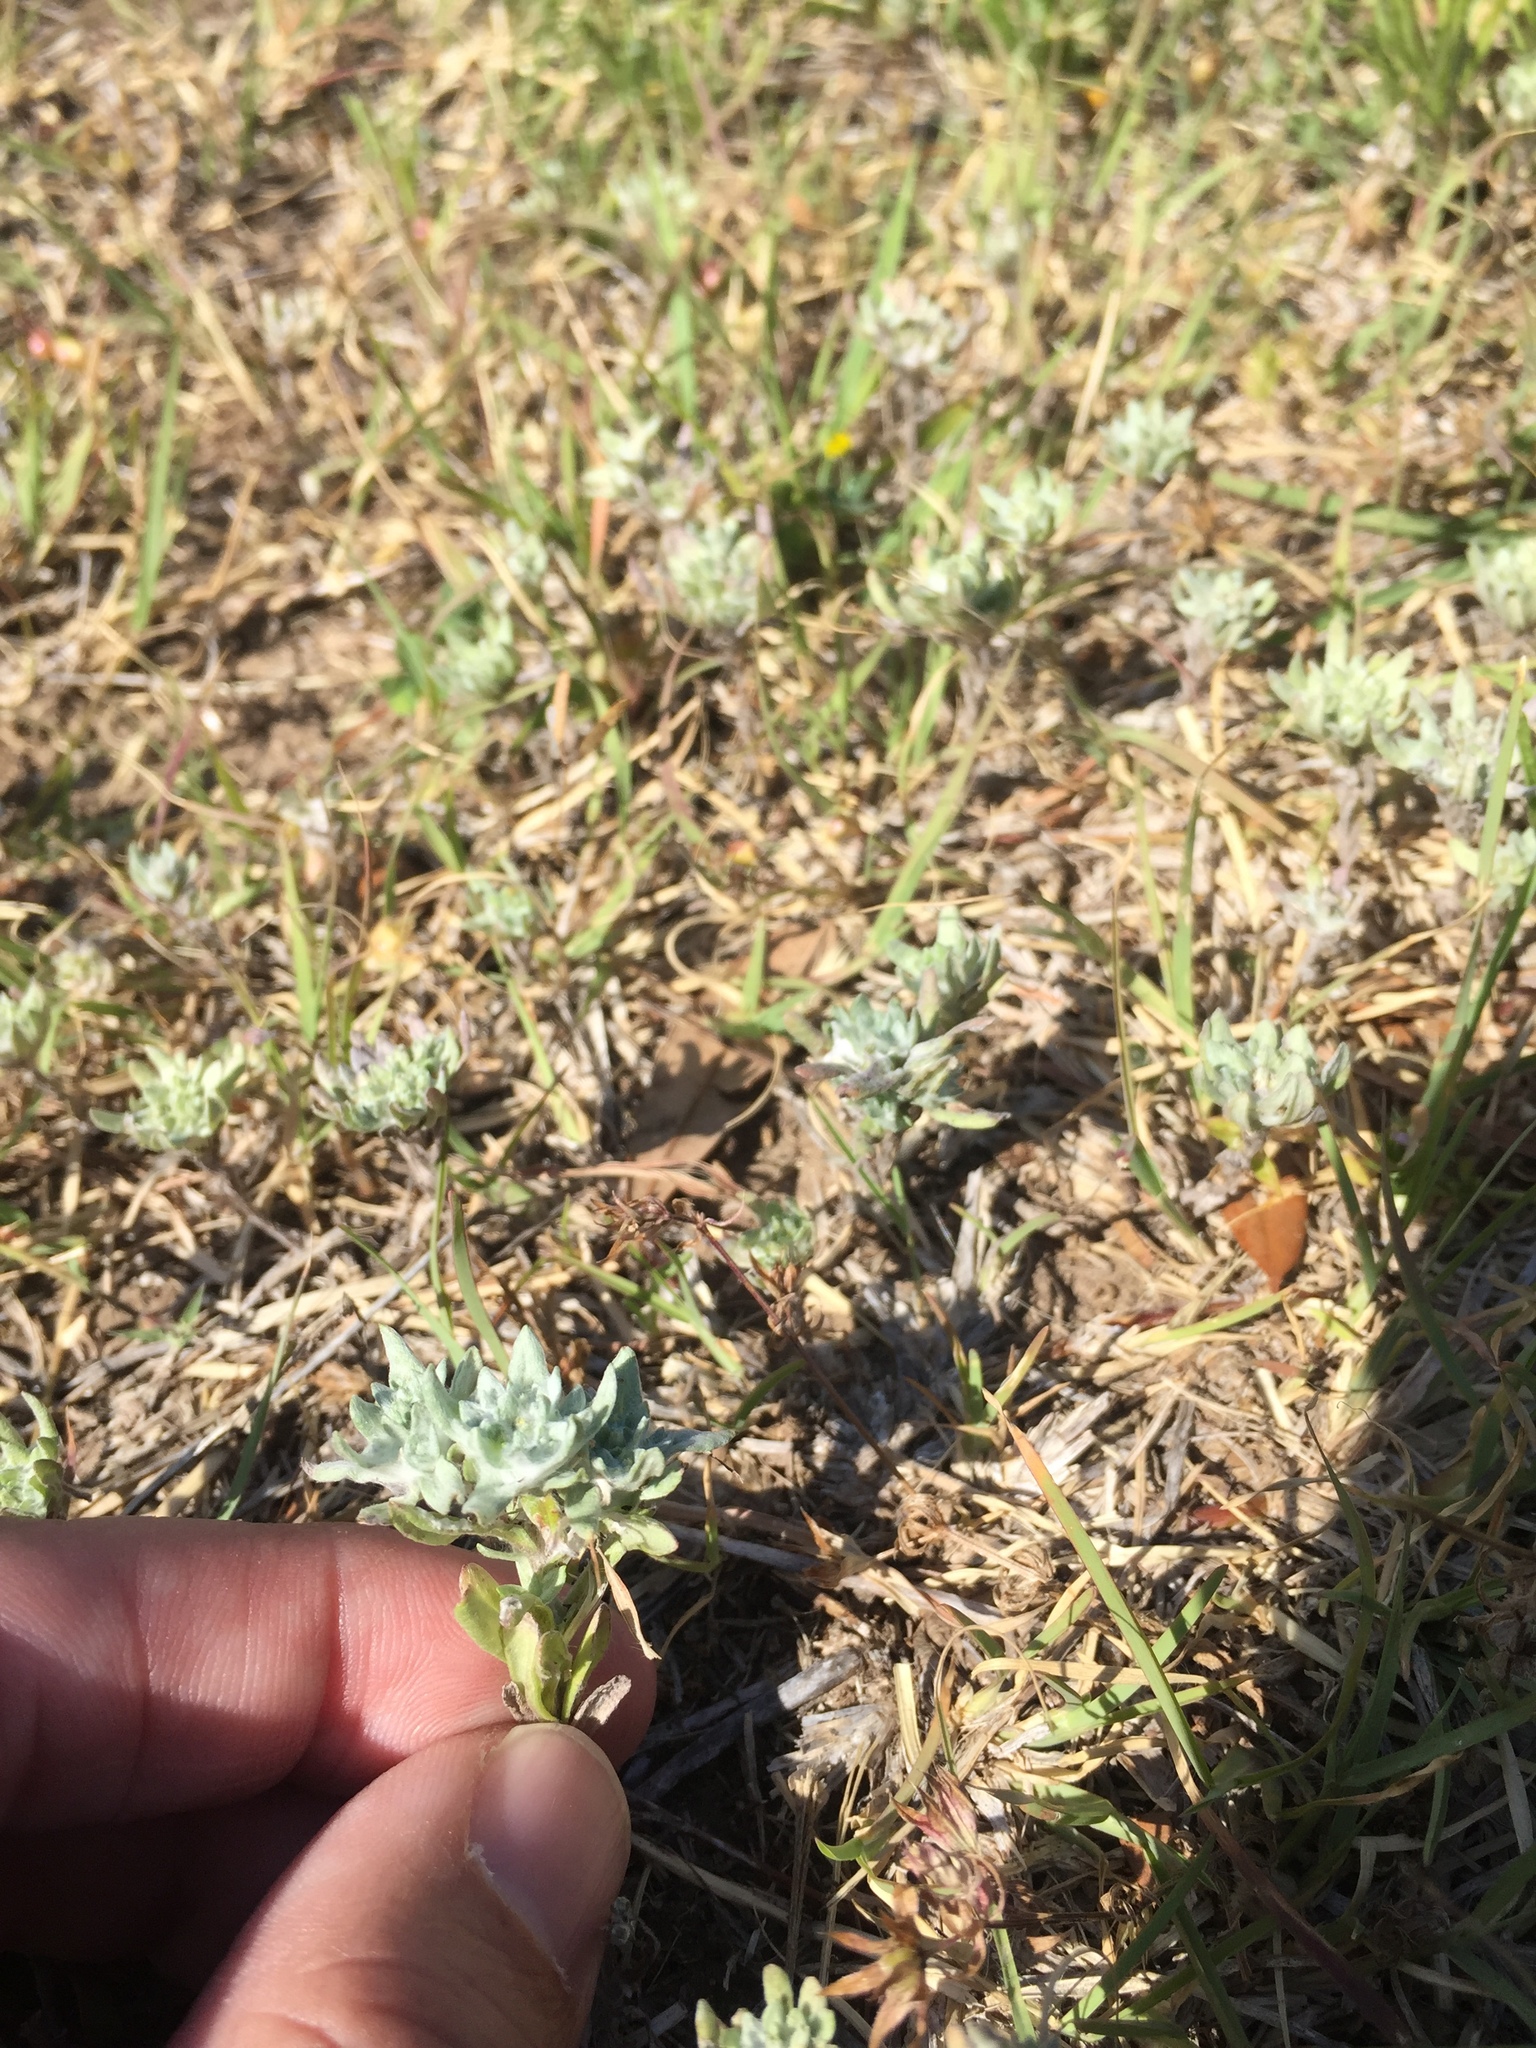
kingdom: Plantae
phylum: Tracheophyta
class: Magnoliopsida
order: Asterales
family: Asteraceae
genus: Diaperia
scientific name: Diaperia prolifera
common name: Big-head rabbit-tobacco
